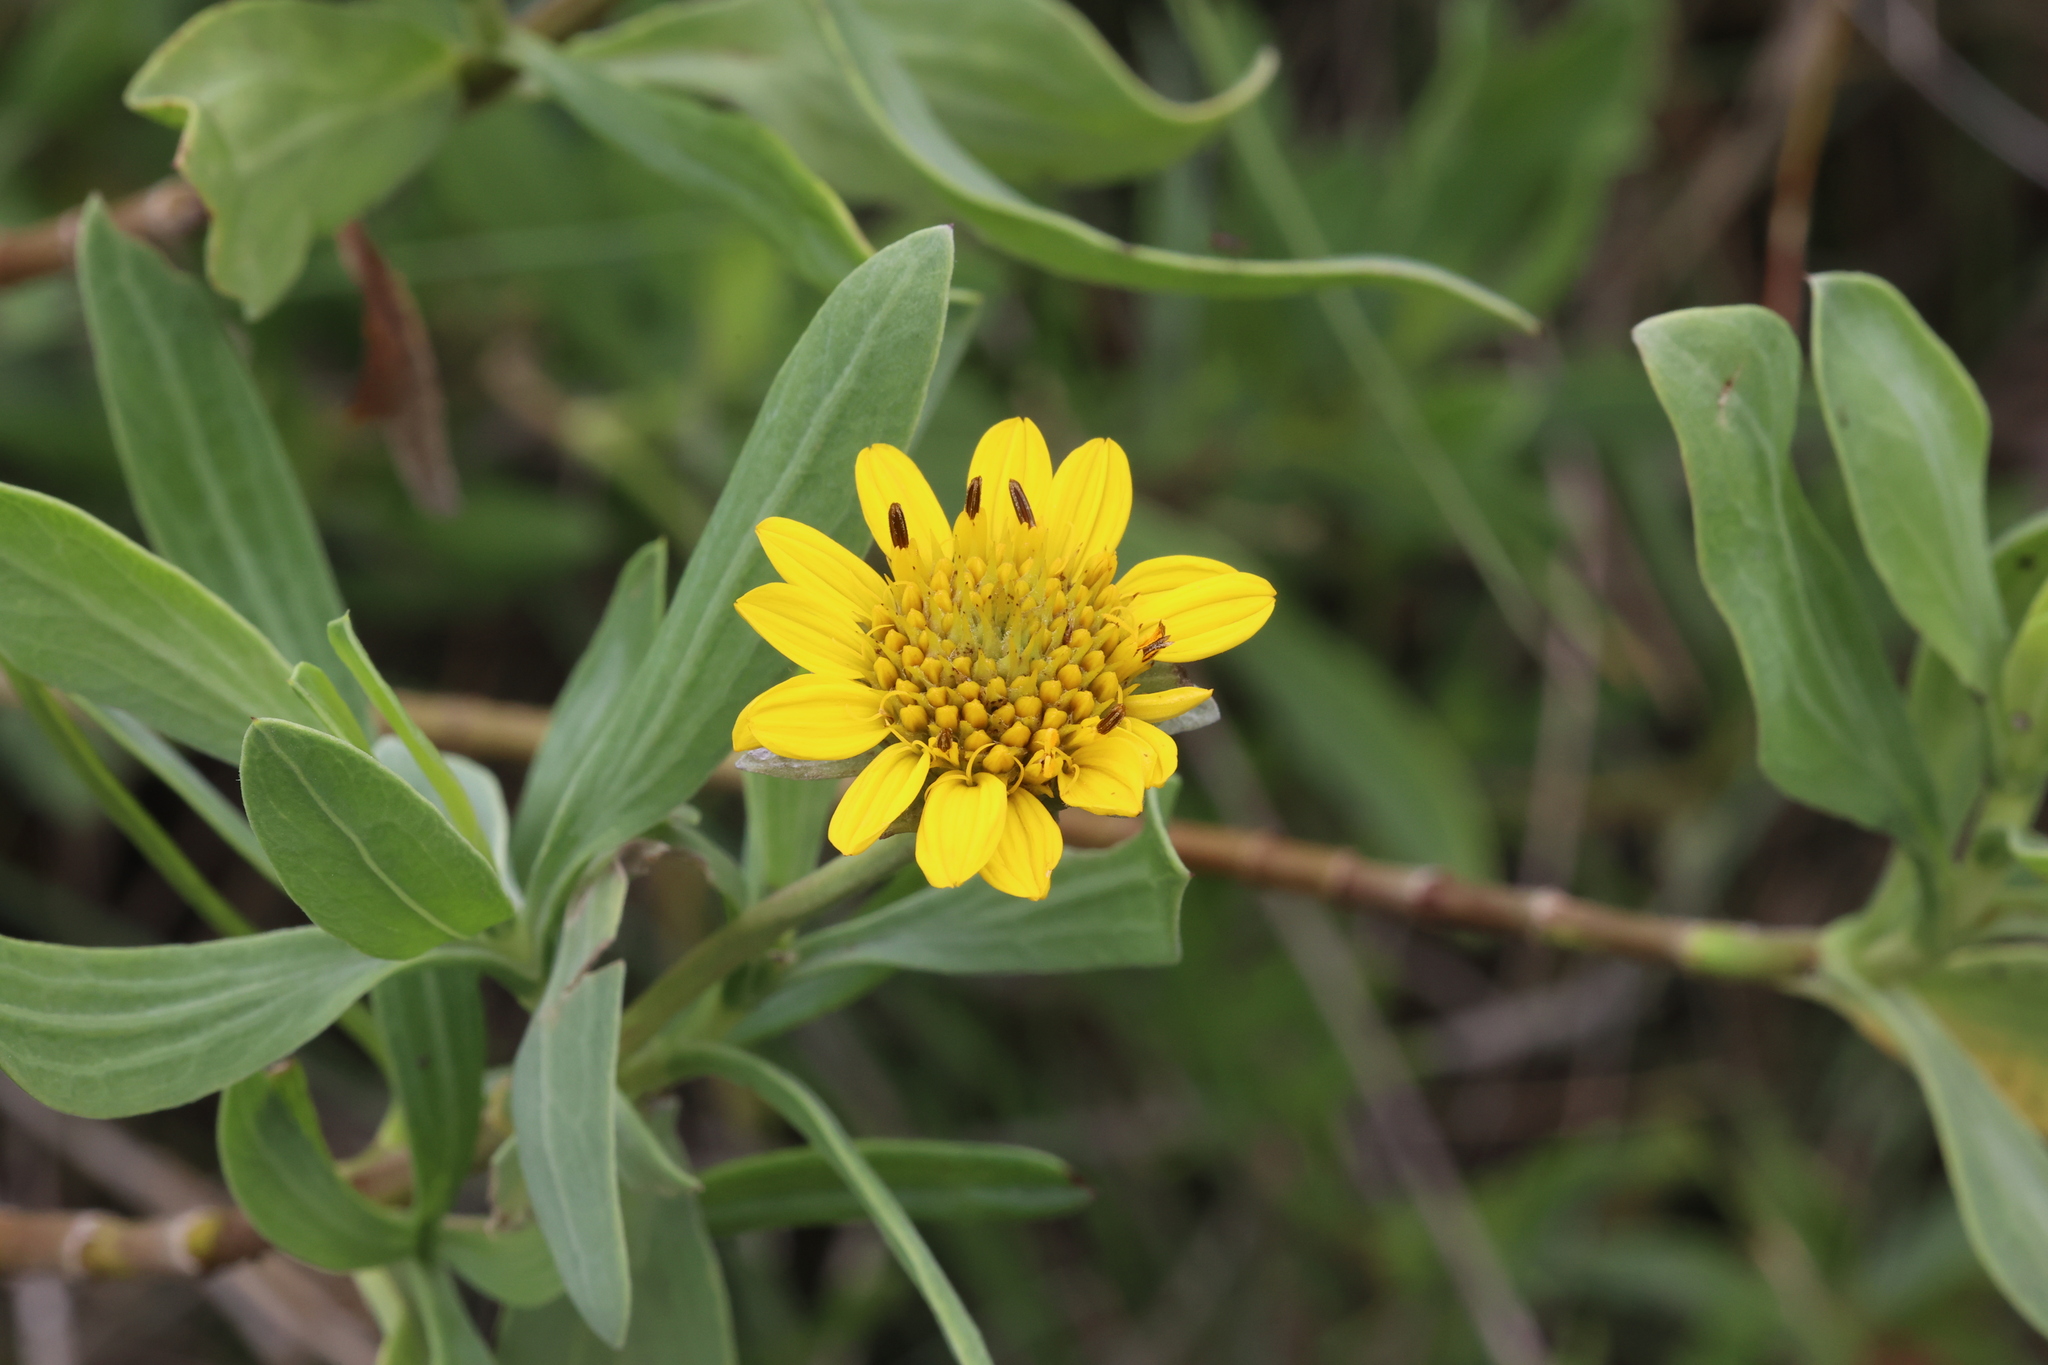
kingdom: Plantae
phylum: Tracheophyta
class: Magnoliopsida
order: Asterales
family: Asteraceae
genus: Borrichia
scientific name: Borrichia frutescens
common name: Sea oxeye
